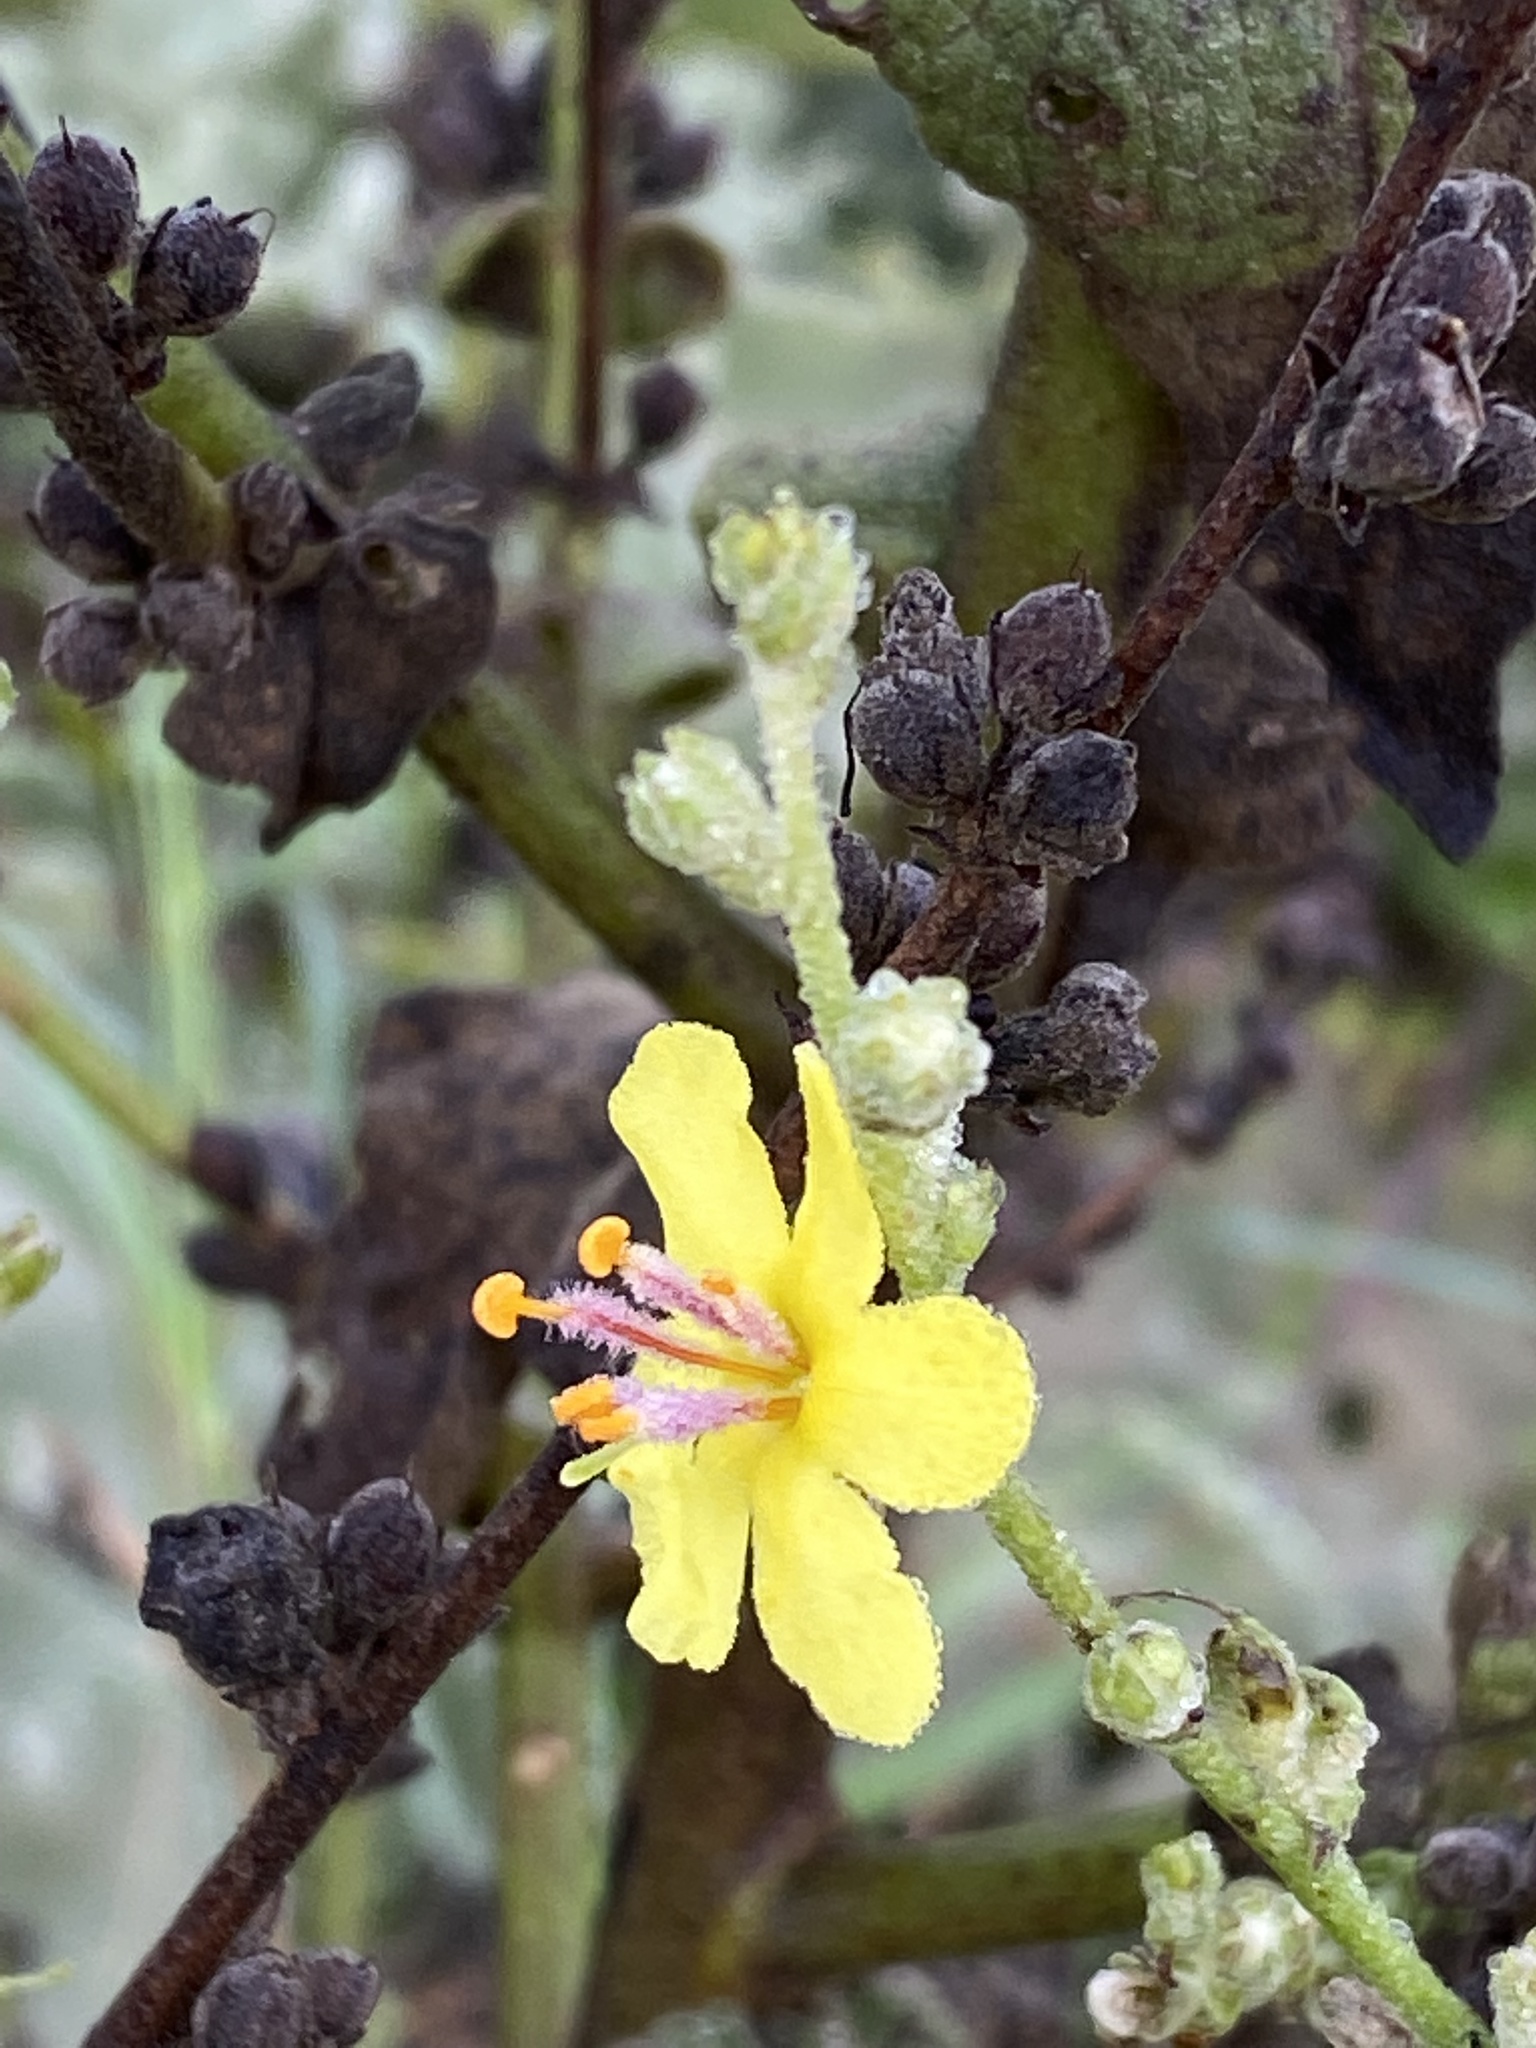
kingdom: Plantae
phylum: Tracheophyta
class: Magnoliopsida
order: Lamiales
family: Scrophulariaceae
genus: Verbascum
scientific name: Verbascum sinuatum
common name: Wavyleaf mullein
